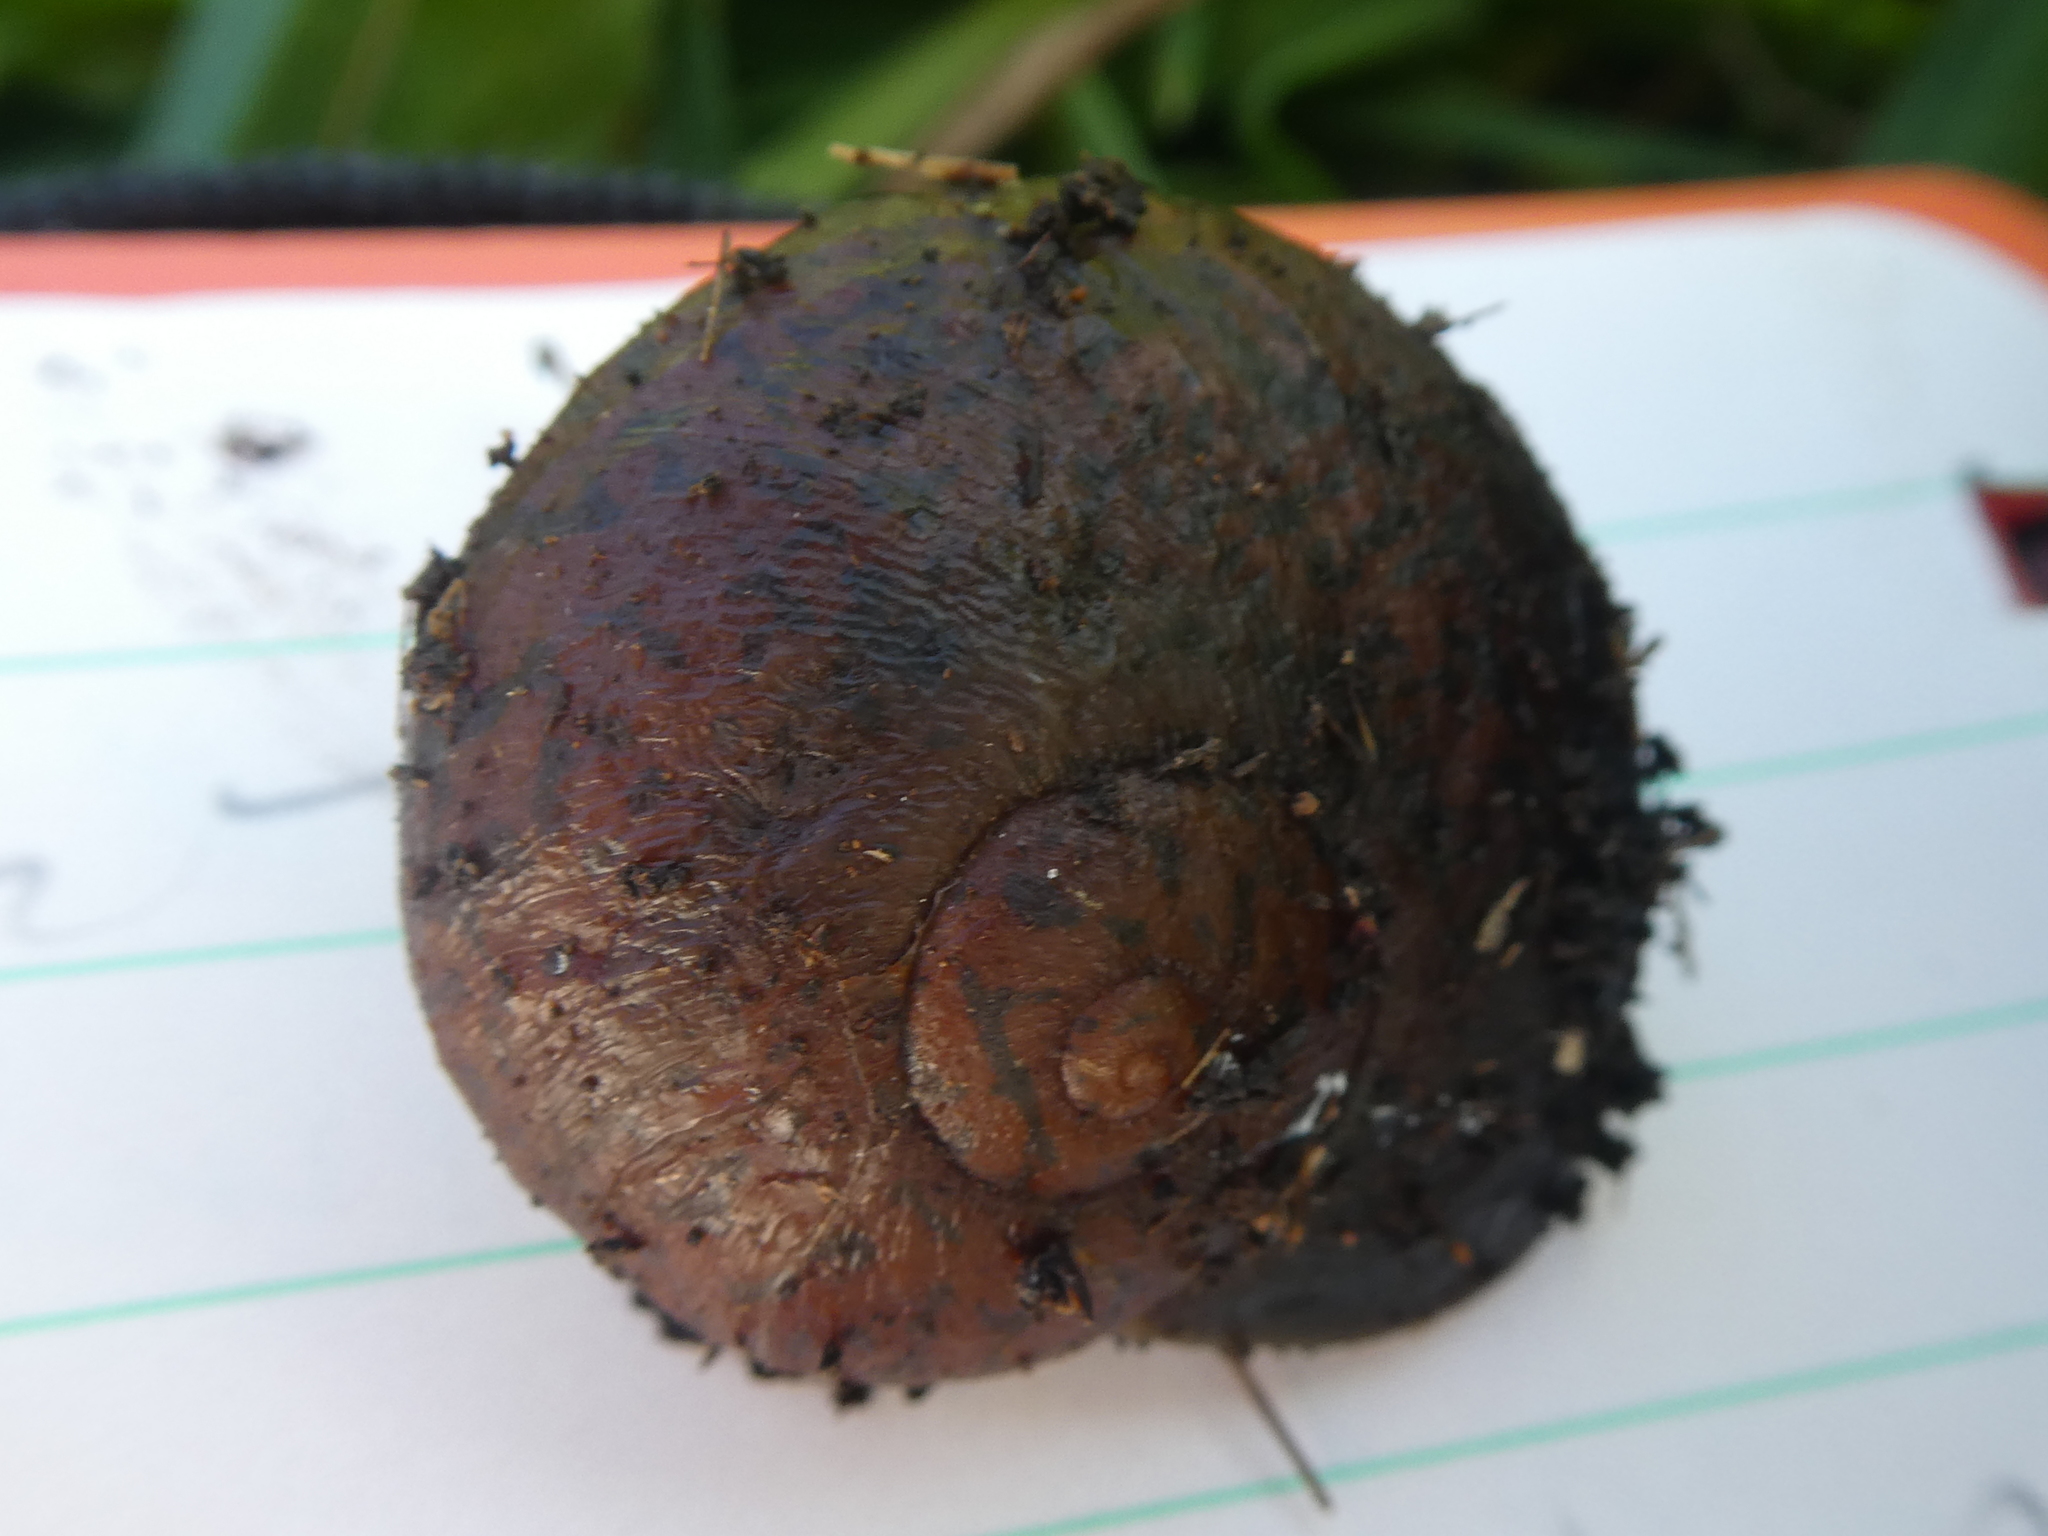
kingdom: Animalia
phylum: Mollusca
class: Gastropoda
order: Stylommatophora
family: Rhytididae
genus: Rhytida
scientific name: Rhytida stephenensis
